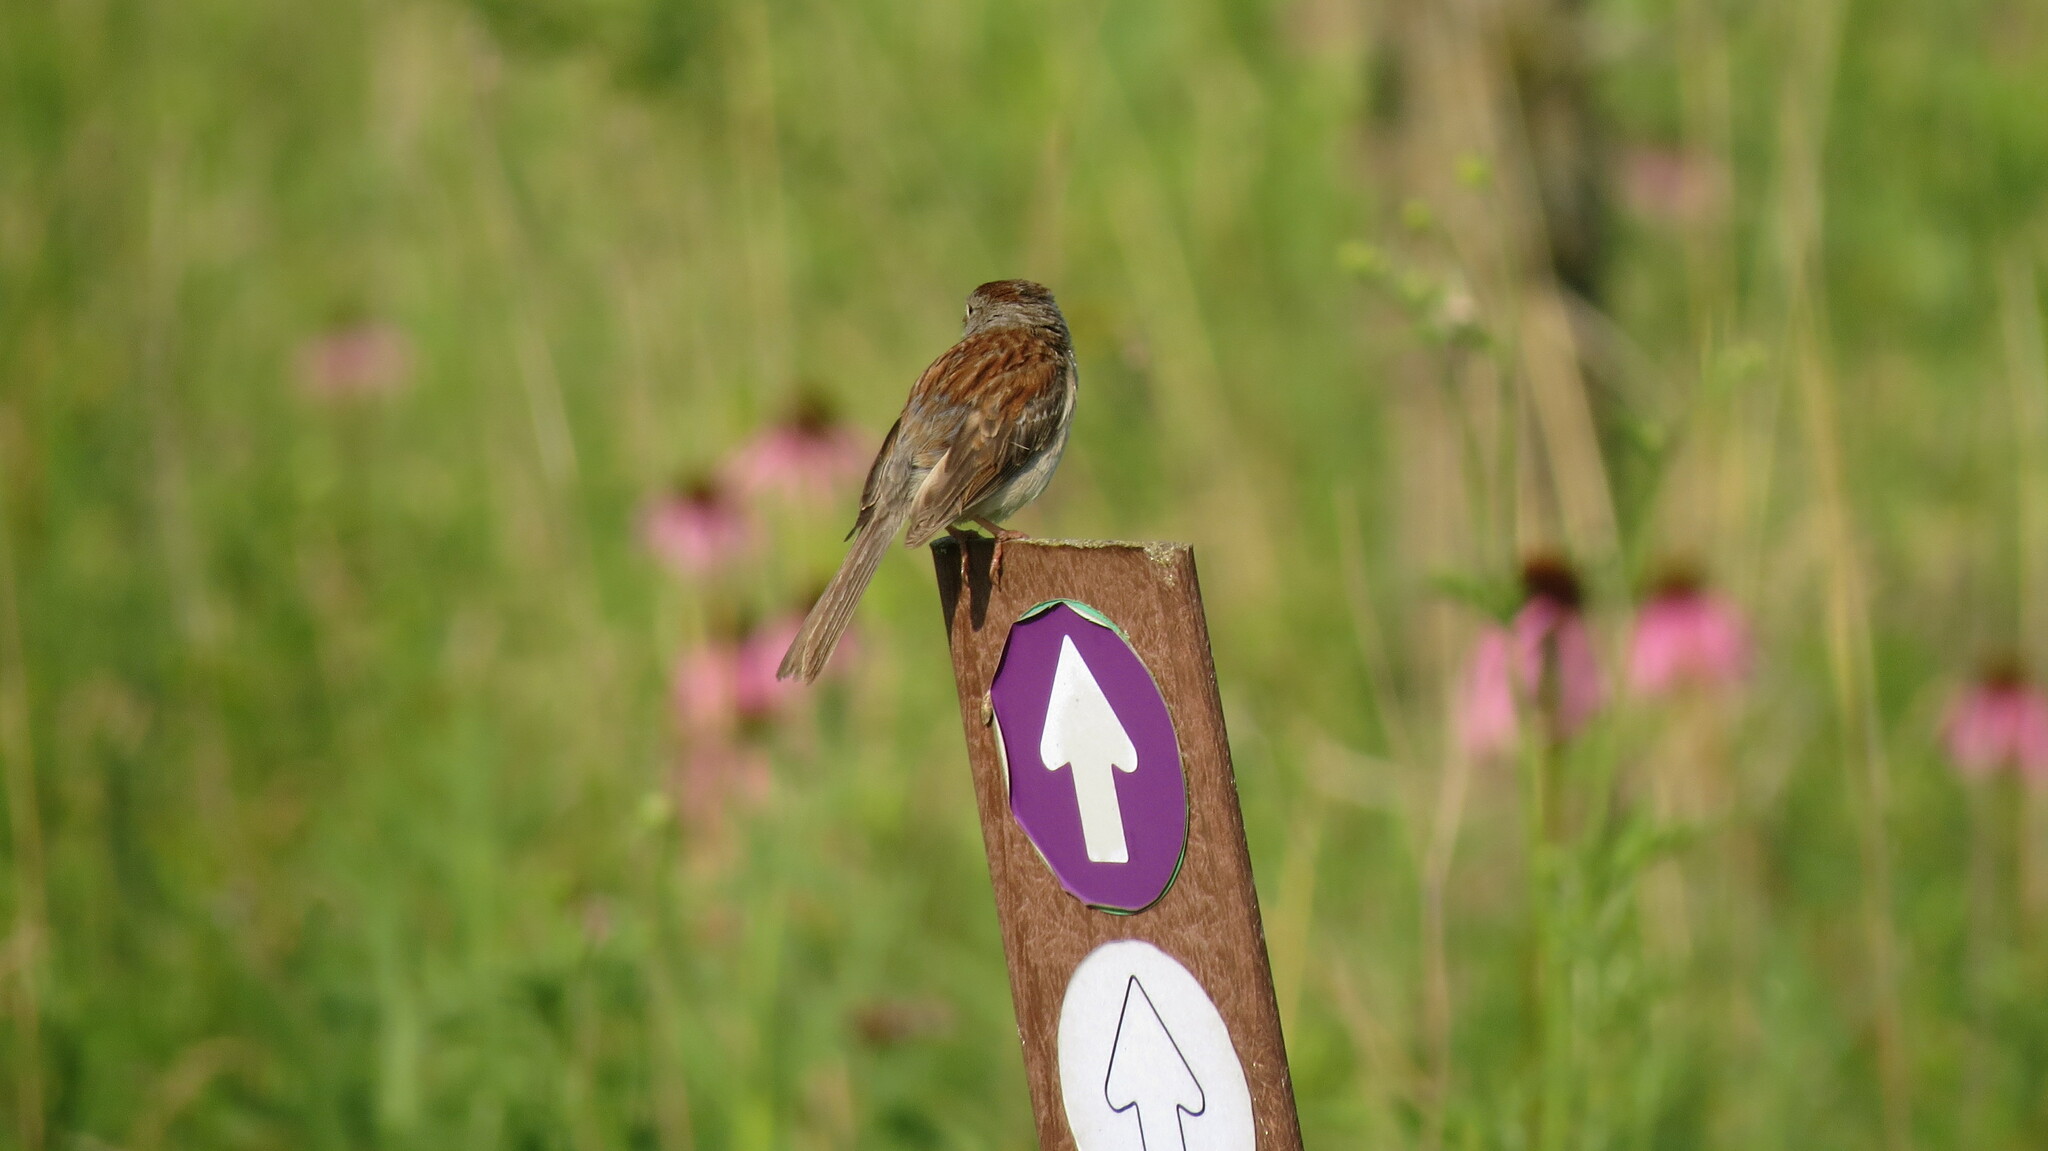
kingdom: Animalia
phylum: Chordata
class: Aves
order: Passeriformes
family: Passerellidae
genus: Spizella
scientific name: Spizella pusilla
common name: Field sparrow
